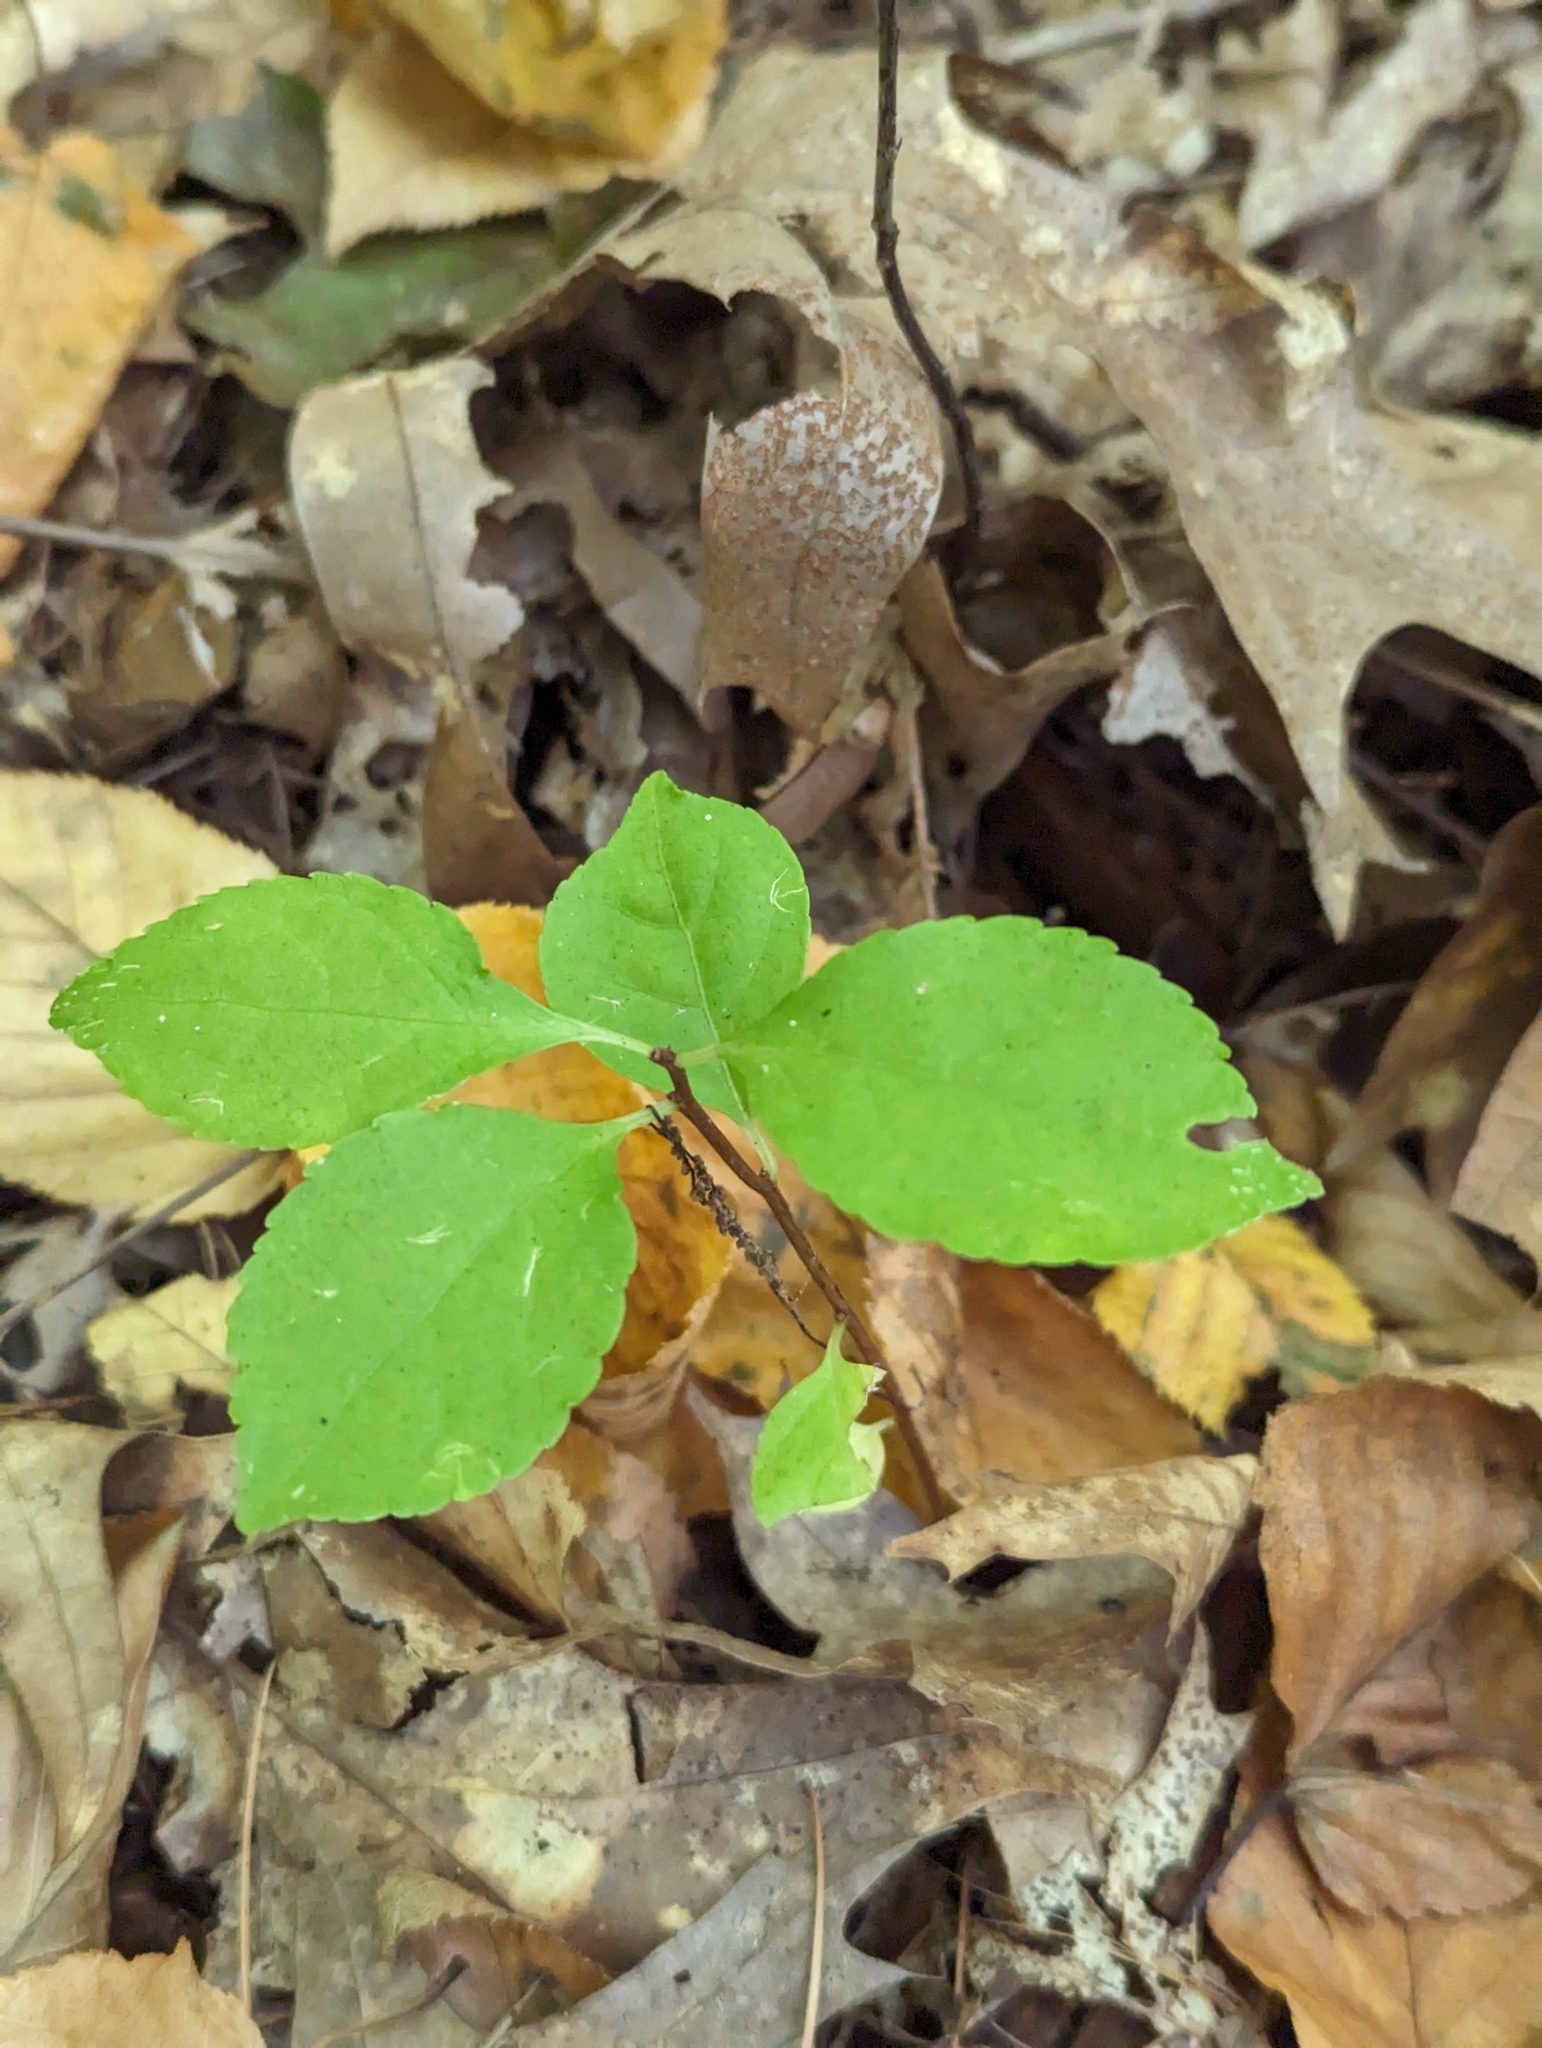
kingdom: Plantae
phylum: Tracheophyta
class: Magnoliopsida
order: Celastrales
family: Celastraceae
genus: Celastrus
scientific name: Celastrus orbiculatus
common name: Oriental bittersweet
